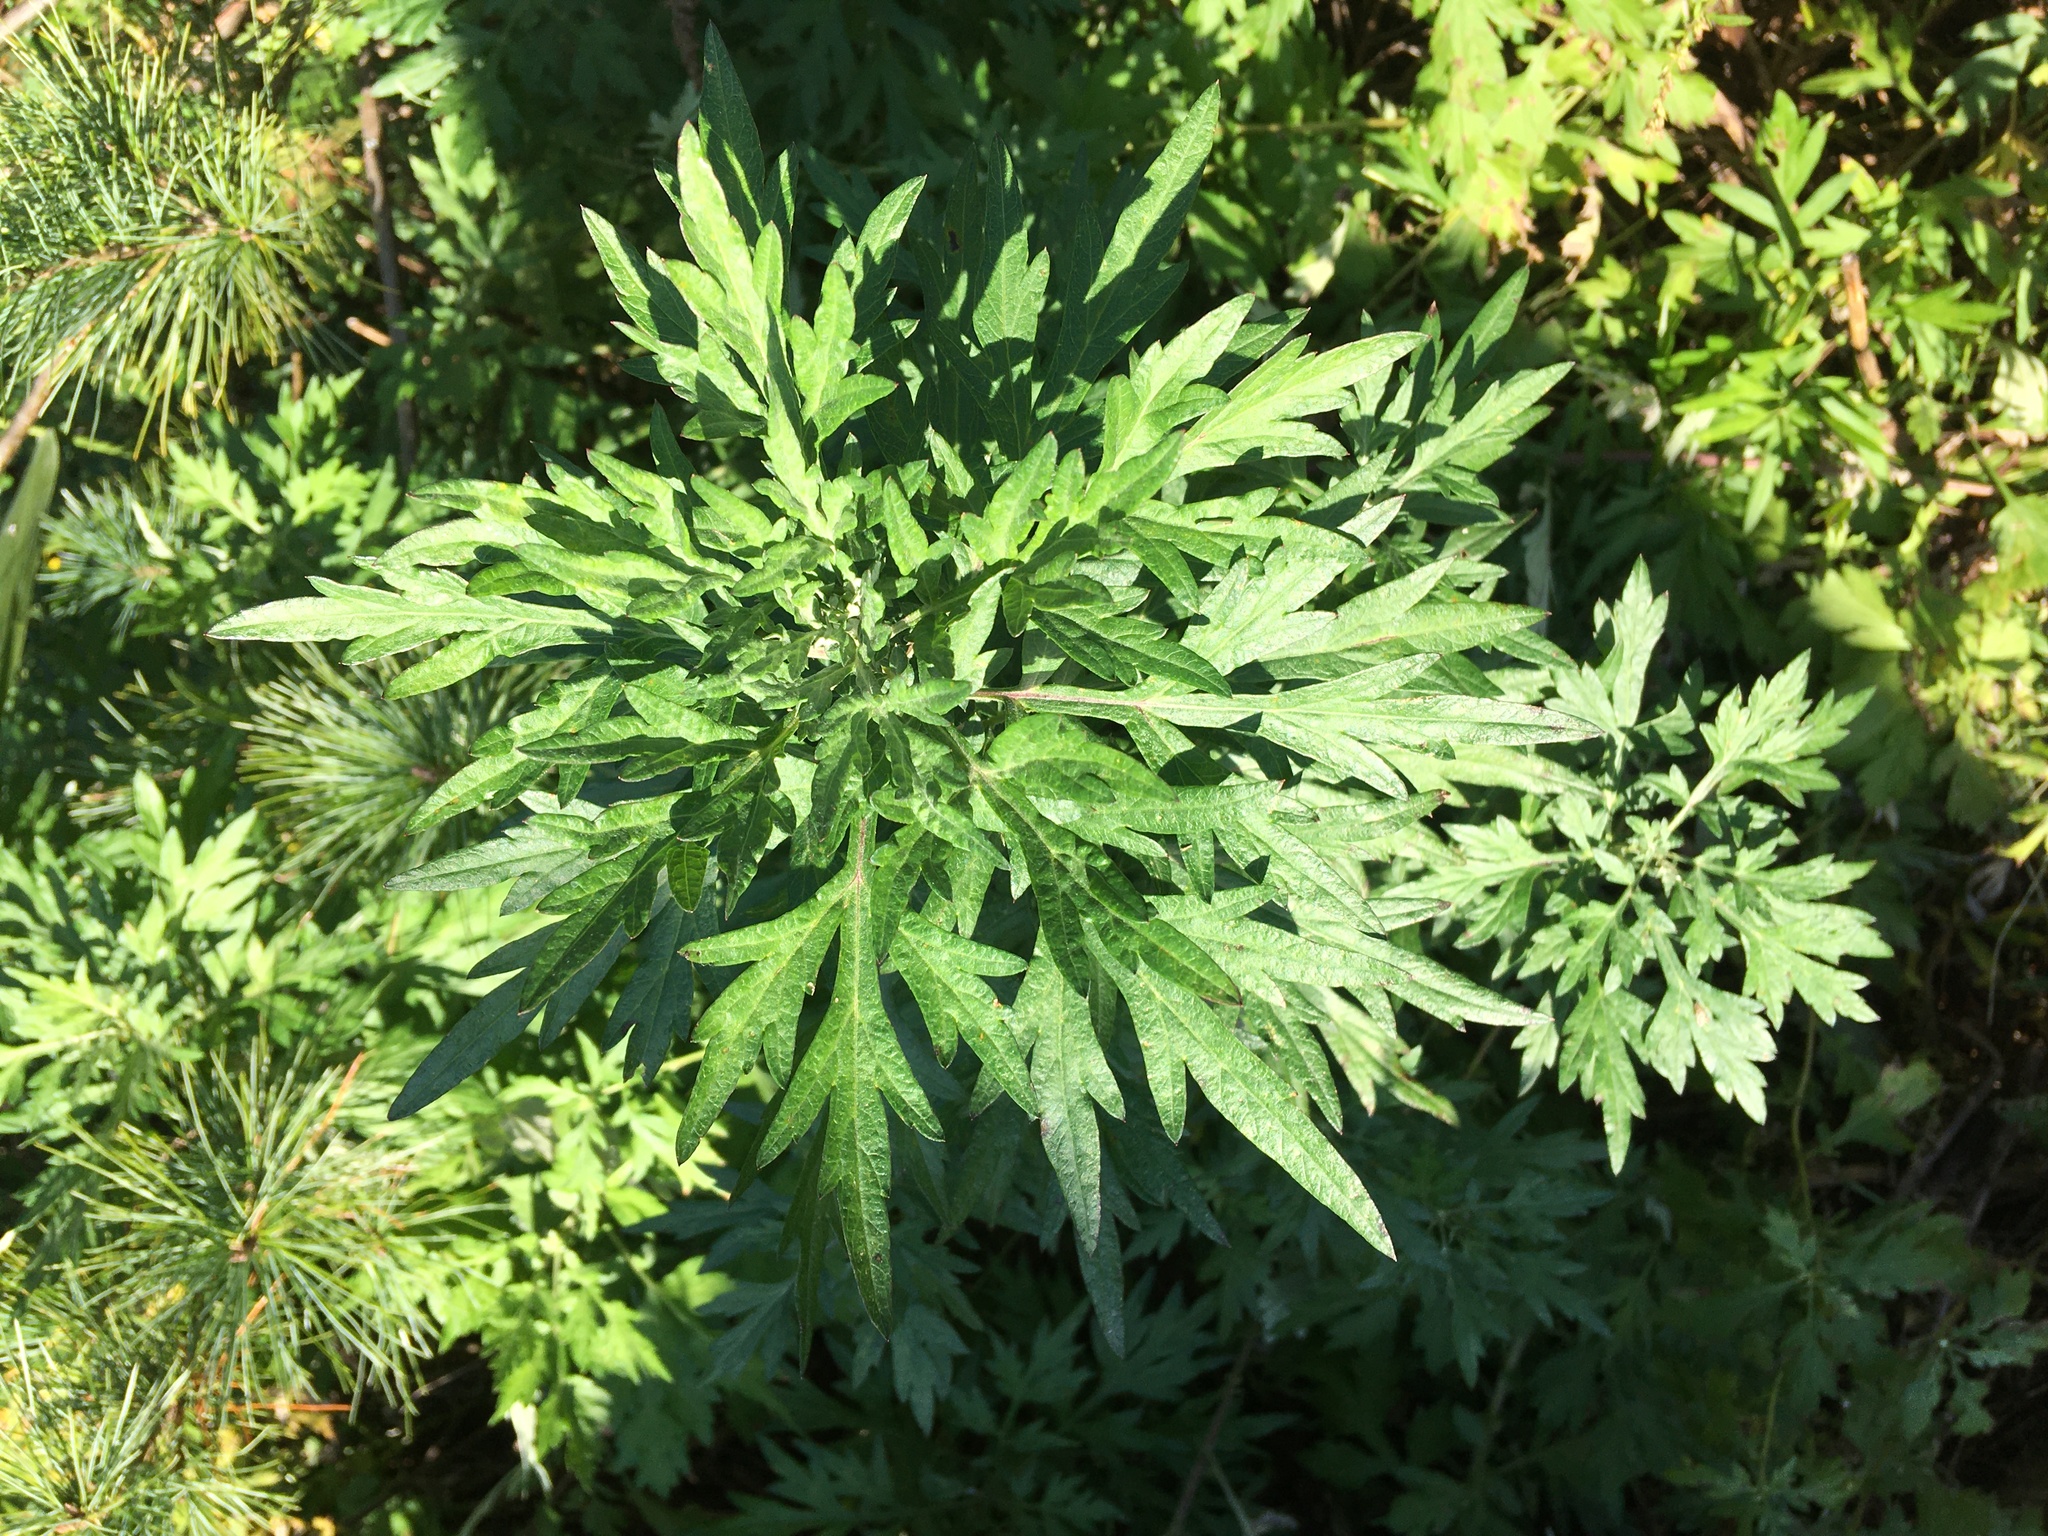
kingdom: Plantae
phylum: Tracheophyta
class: Magnoliopsida
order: Asterales
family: Asteraceae
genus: Artemisia
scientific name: Artemisia vulgaris
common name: Mugwort
